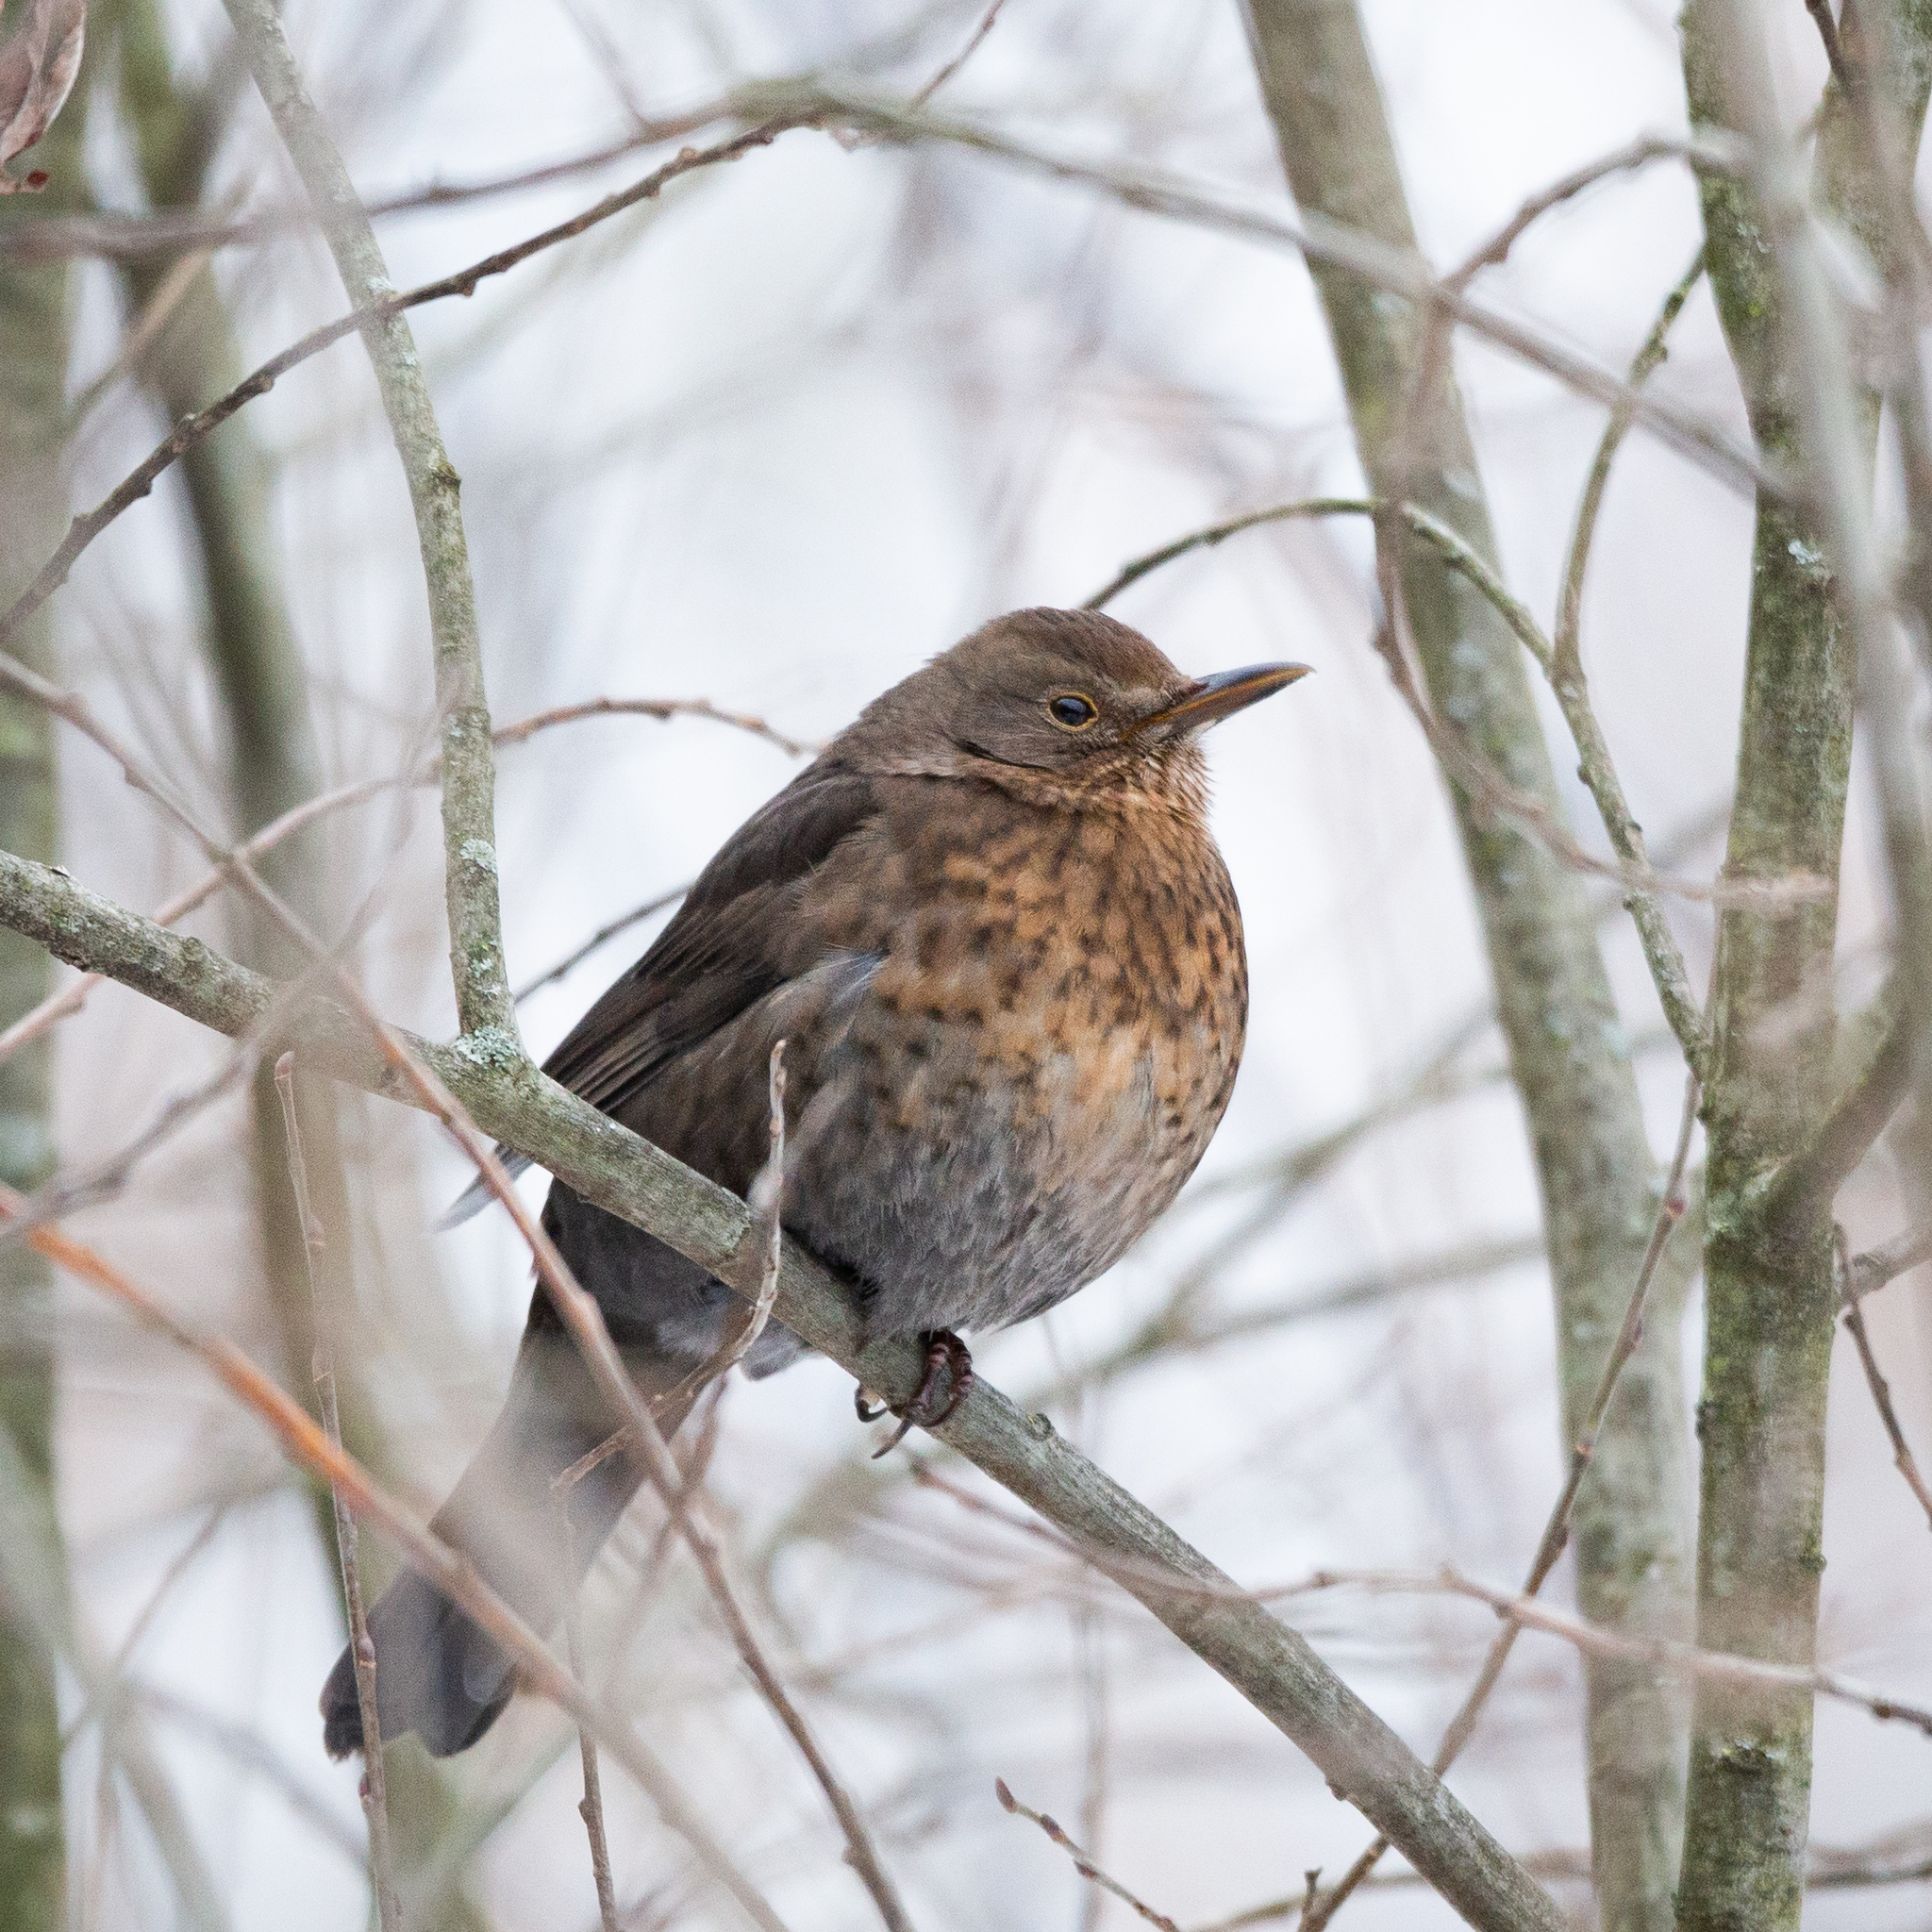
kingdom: Animalia
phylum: Chordata
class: Aves
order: Passeriformes
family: Turdidae
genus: Turdus
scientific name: Turdus merula
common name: Common blackbird
